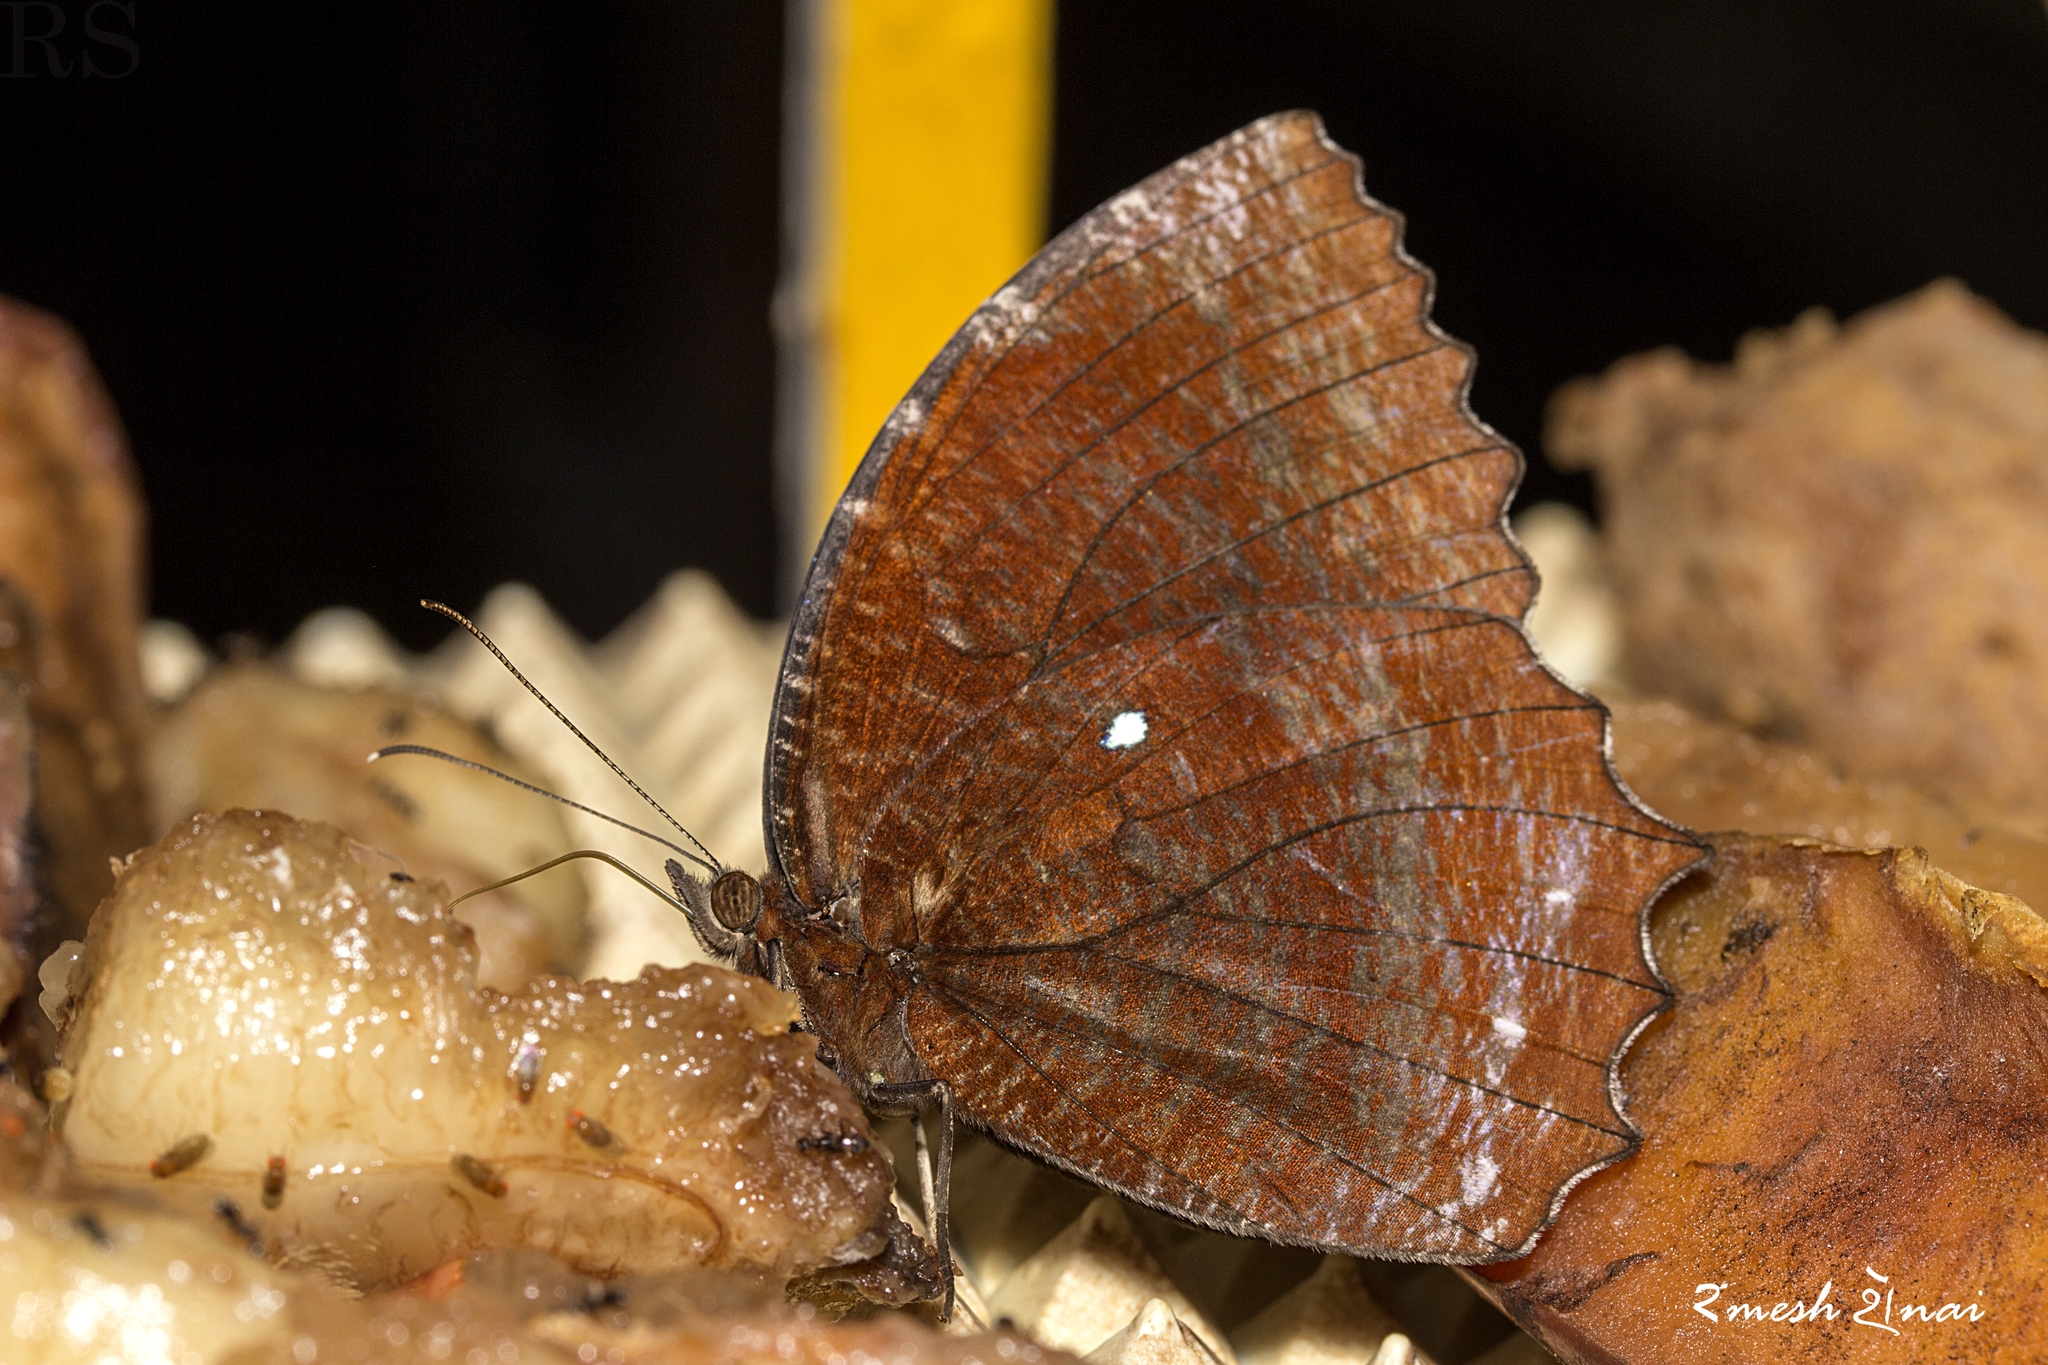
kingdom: Animalia
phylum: Arthropoda
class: Insecta
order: Lepidoptera
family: Nymphalidae
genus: Elymnias
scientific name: Elymnias hypermnestra
